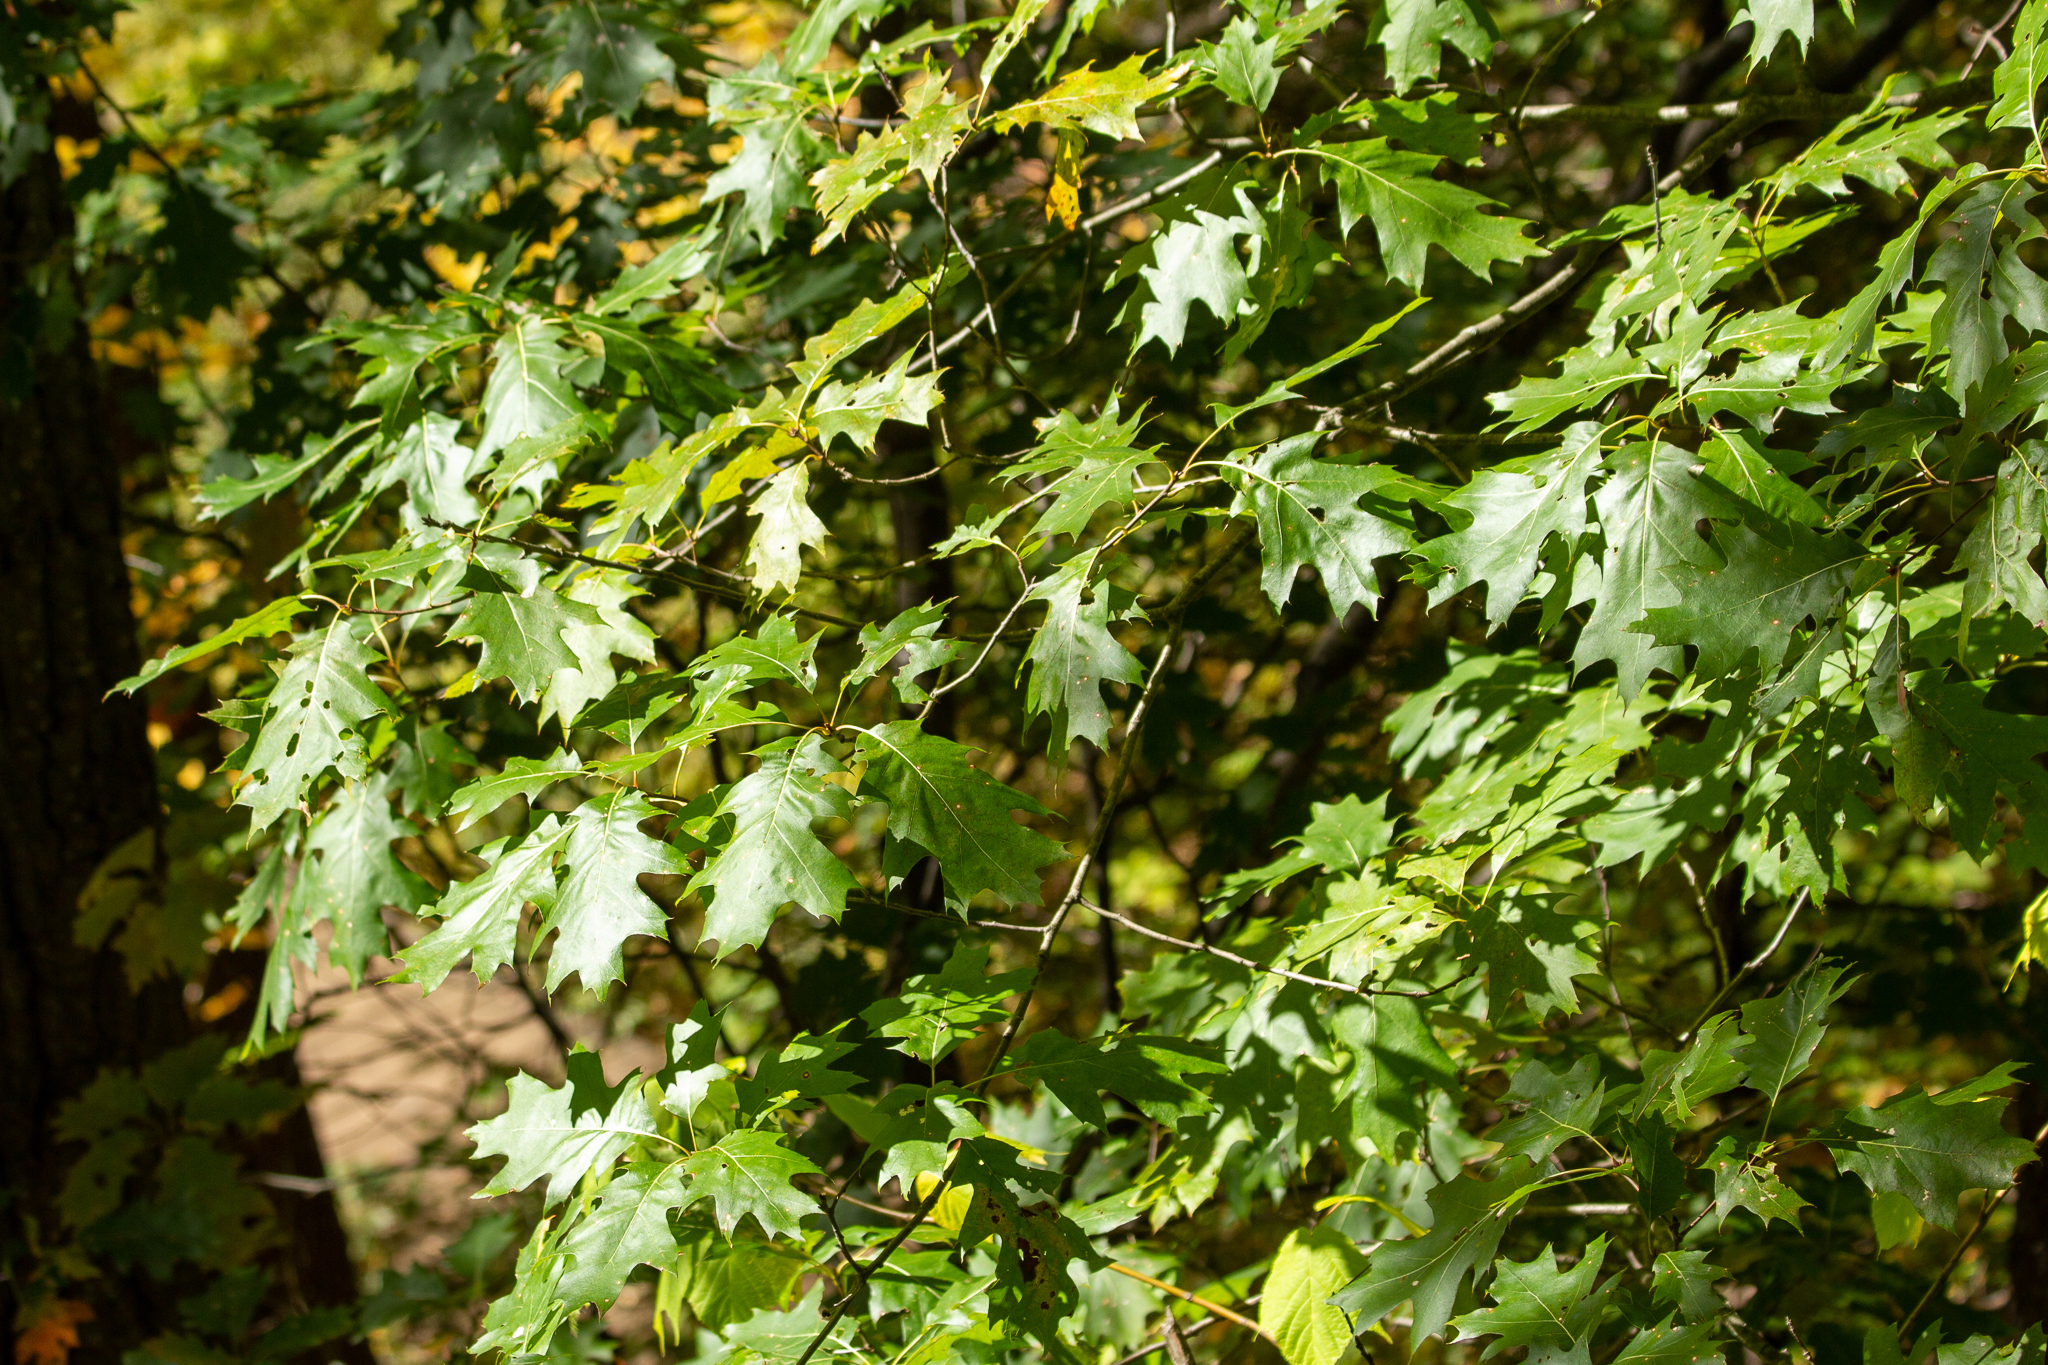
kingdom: Plantae
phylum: Tracheophyta
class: Magnoliopsida
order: Fagales
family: Fagaceae
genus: Quercus
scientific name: Quercus rubra
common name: Red oak
